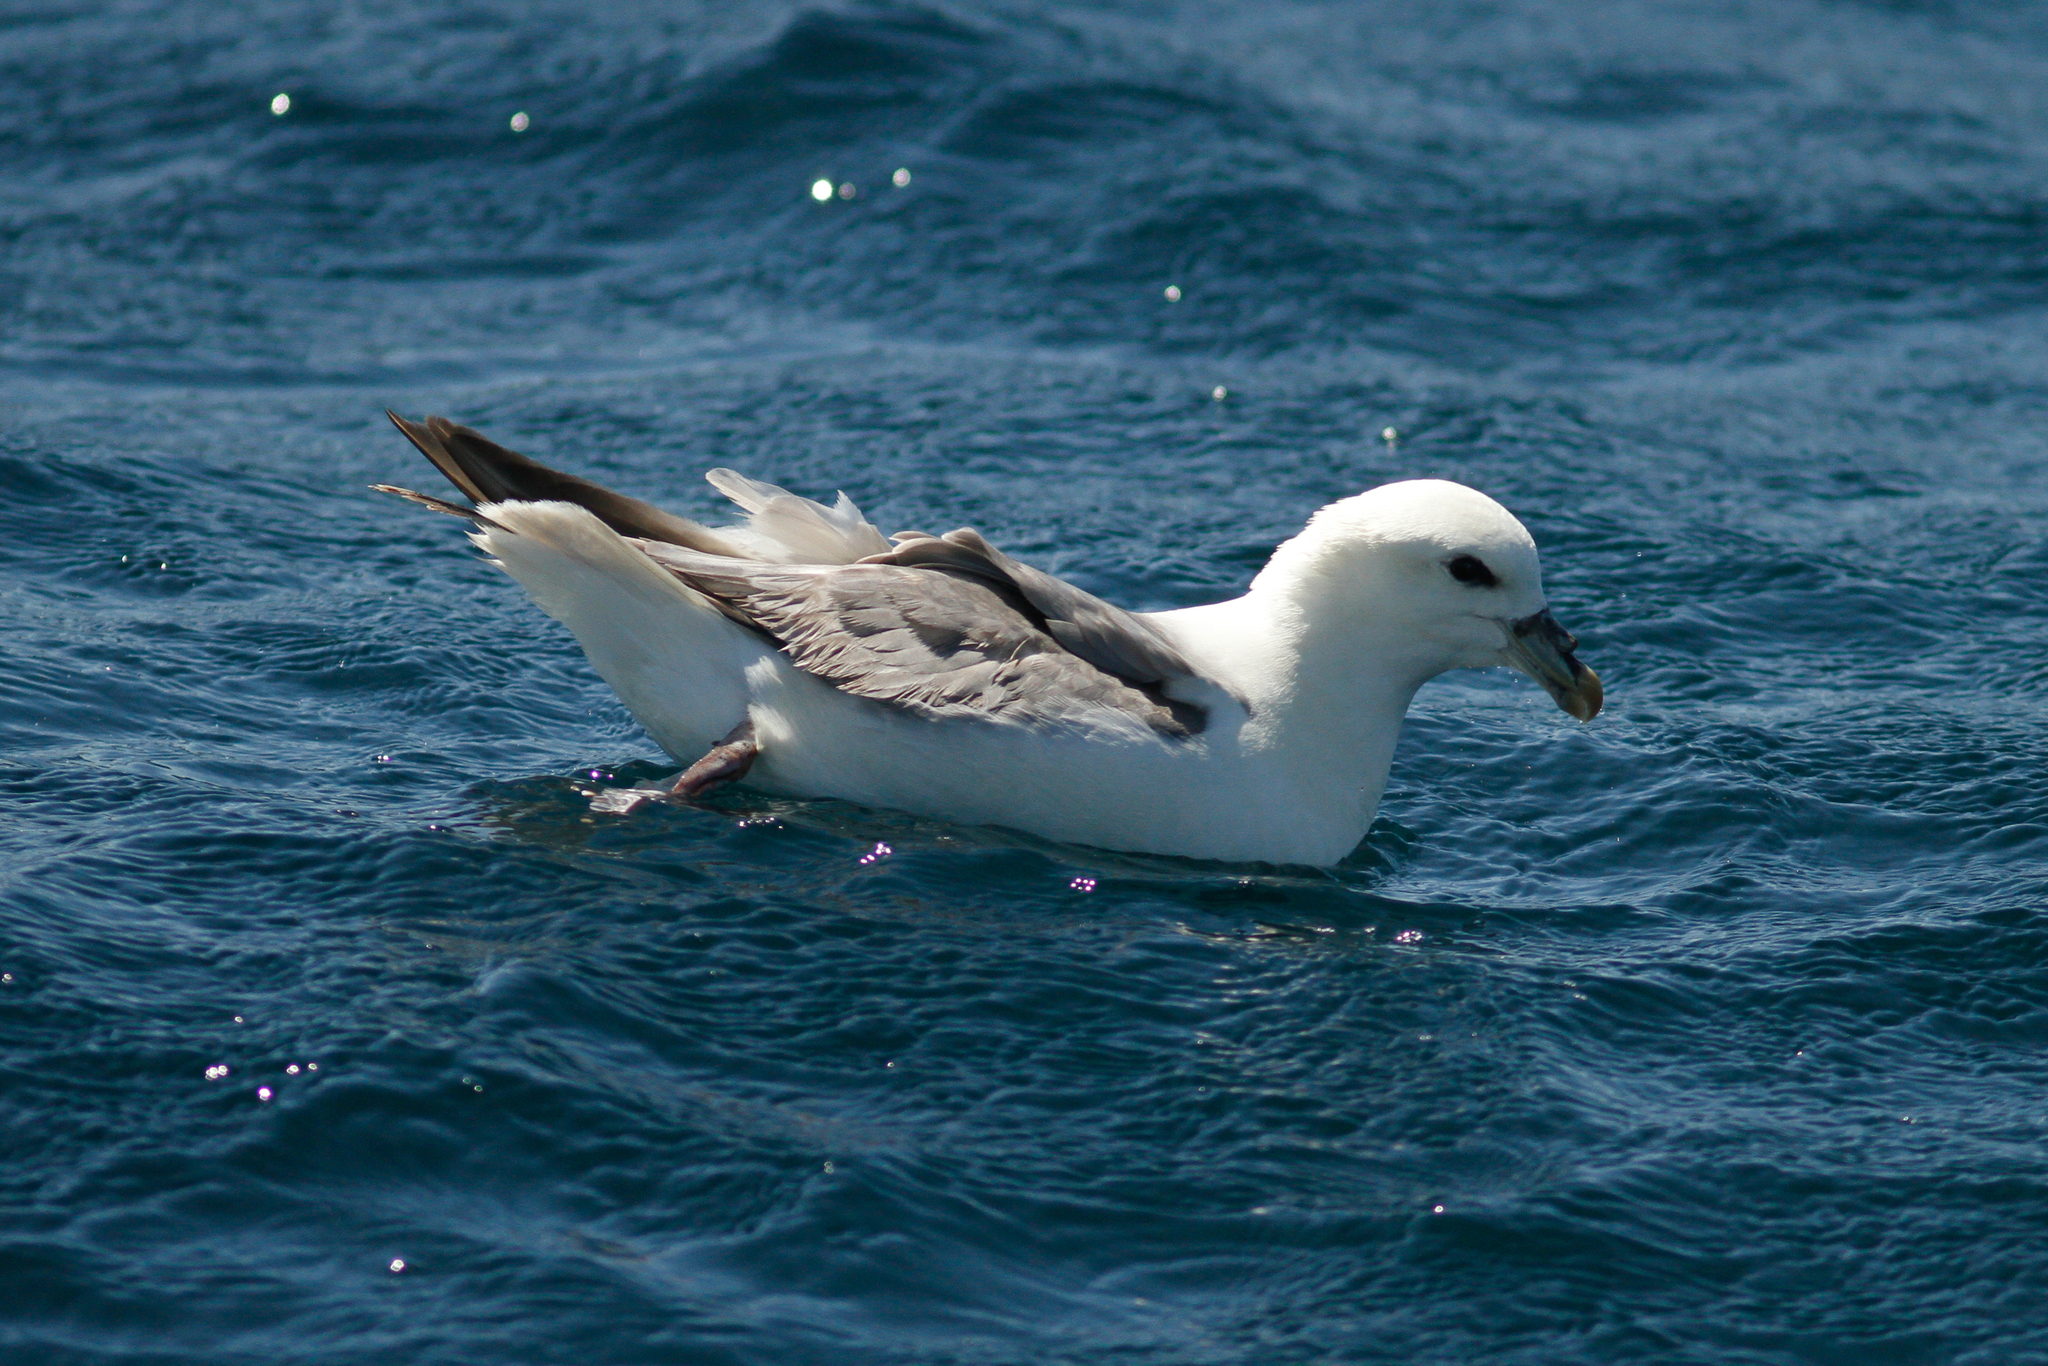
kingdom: Animalia
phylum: Chordata
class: Aves
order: Procellariiformes
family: Procellariidae
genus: Fulmarus
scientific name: Fulmarus glacialis
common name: Northern fulmar
